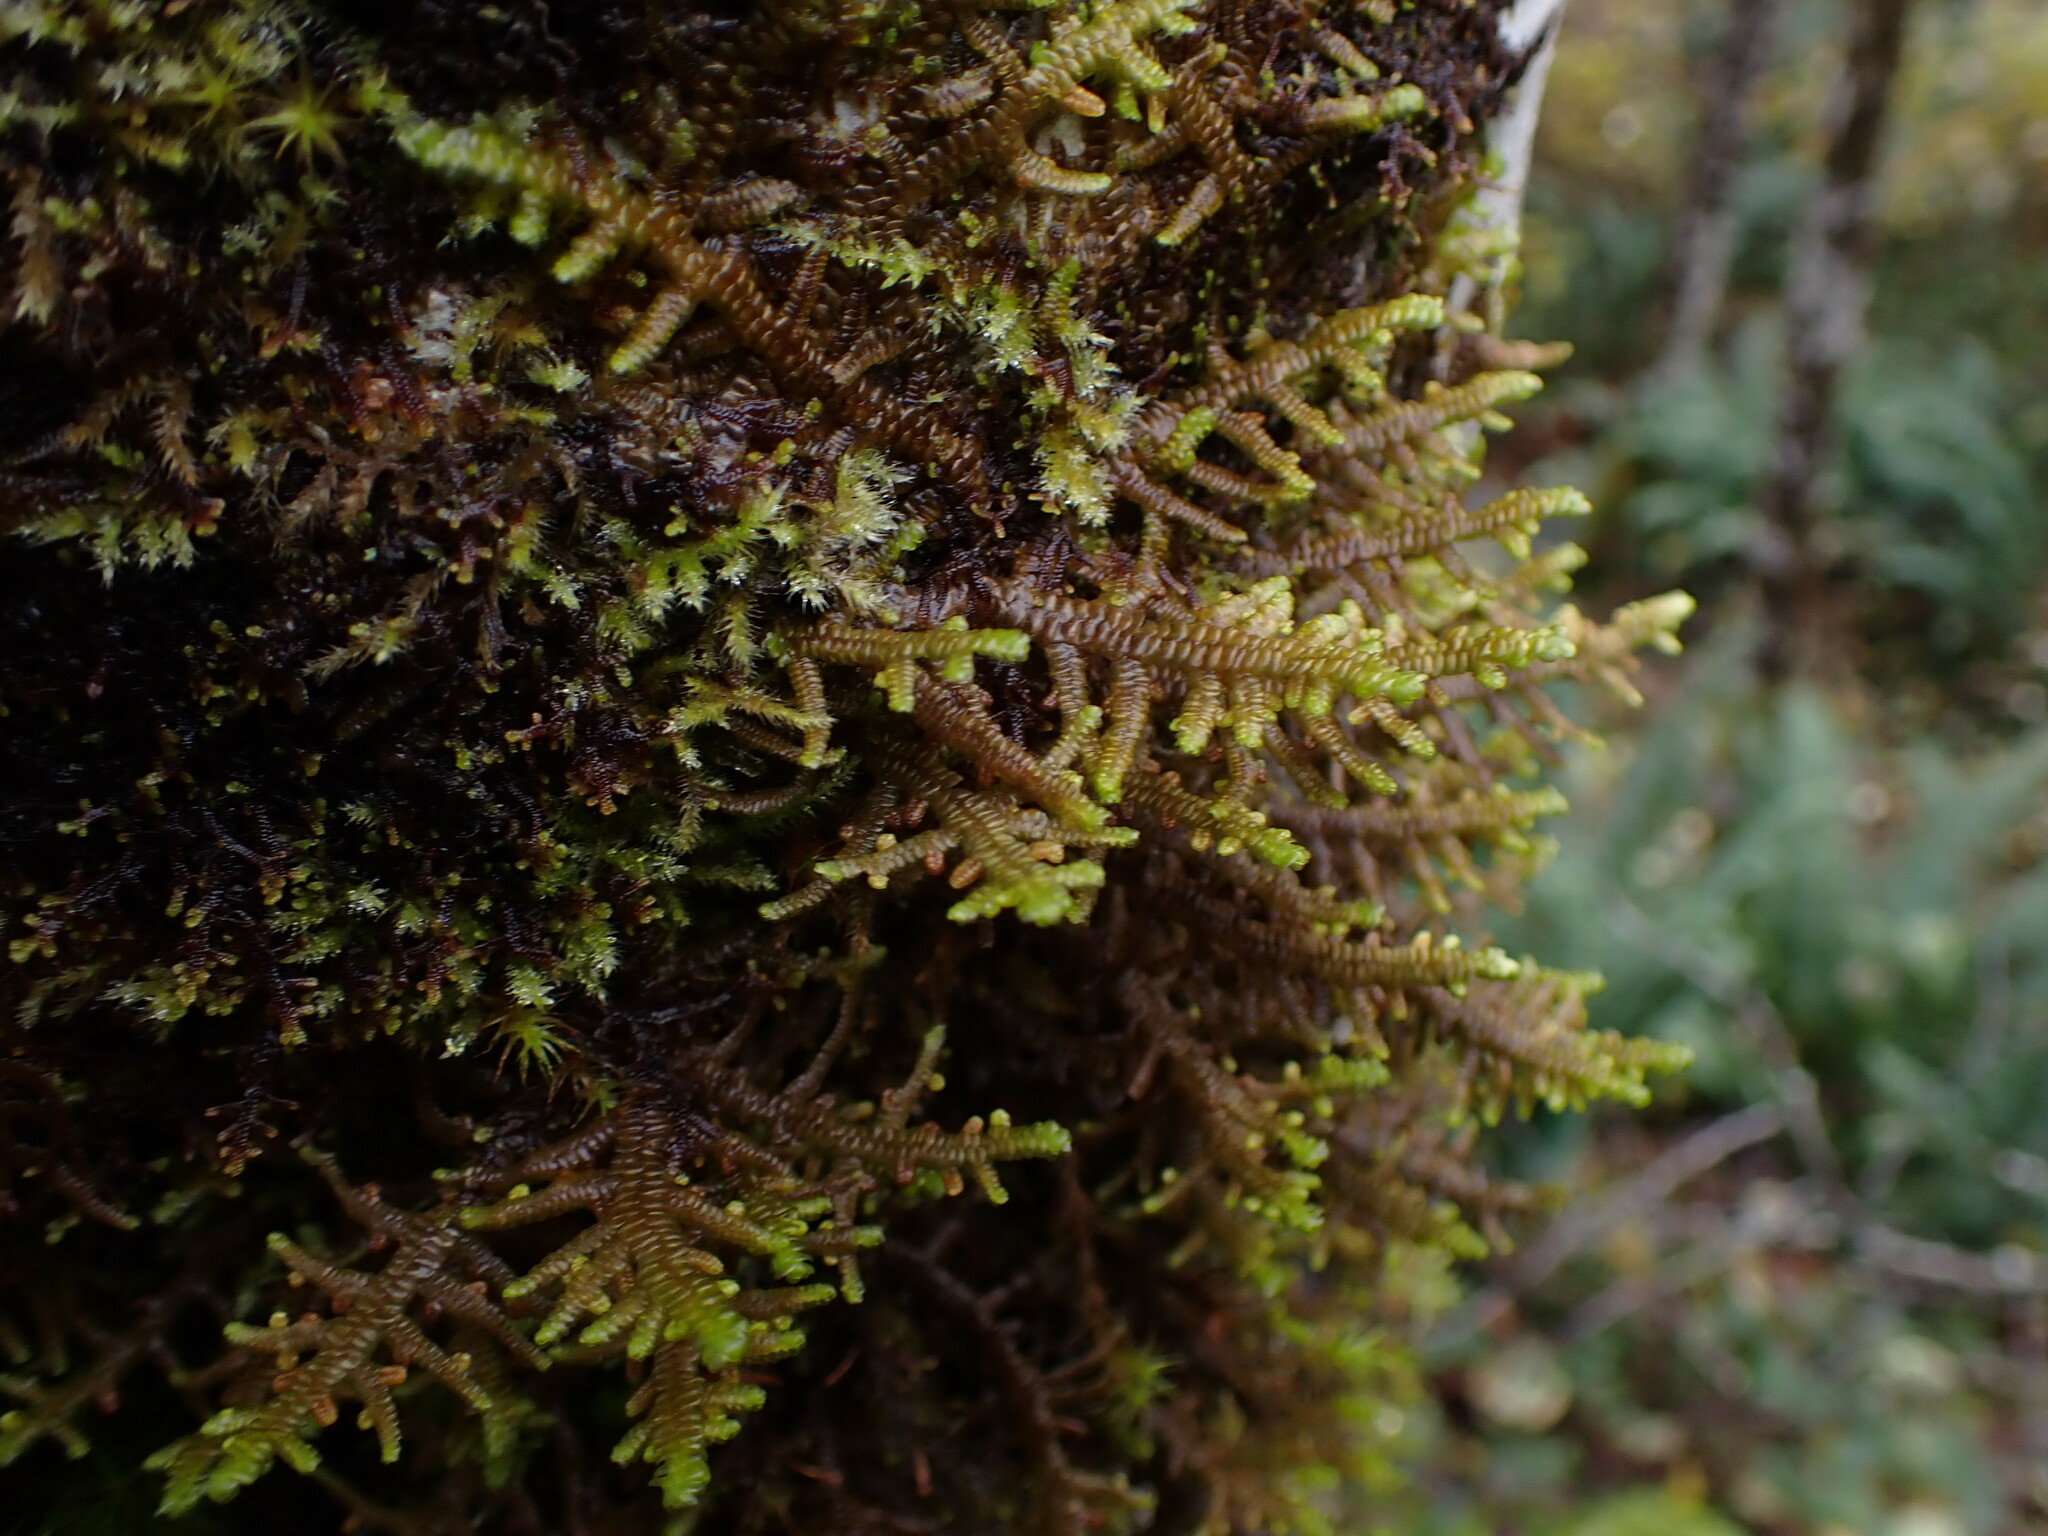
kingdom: Plantae
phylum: Marchantiophyta
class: Jungermanniopsida
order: Porellales
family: Porellaceae
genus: Porella
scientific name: Porella navicularis
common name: Tree ruffle liverwort
